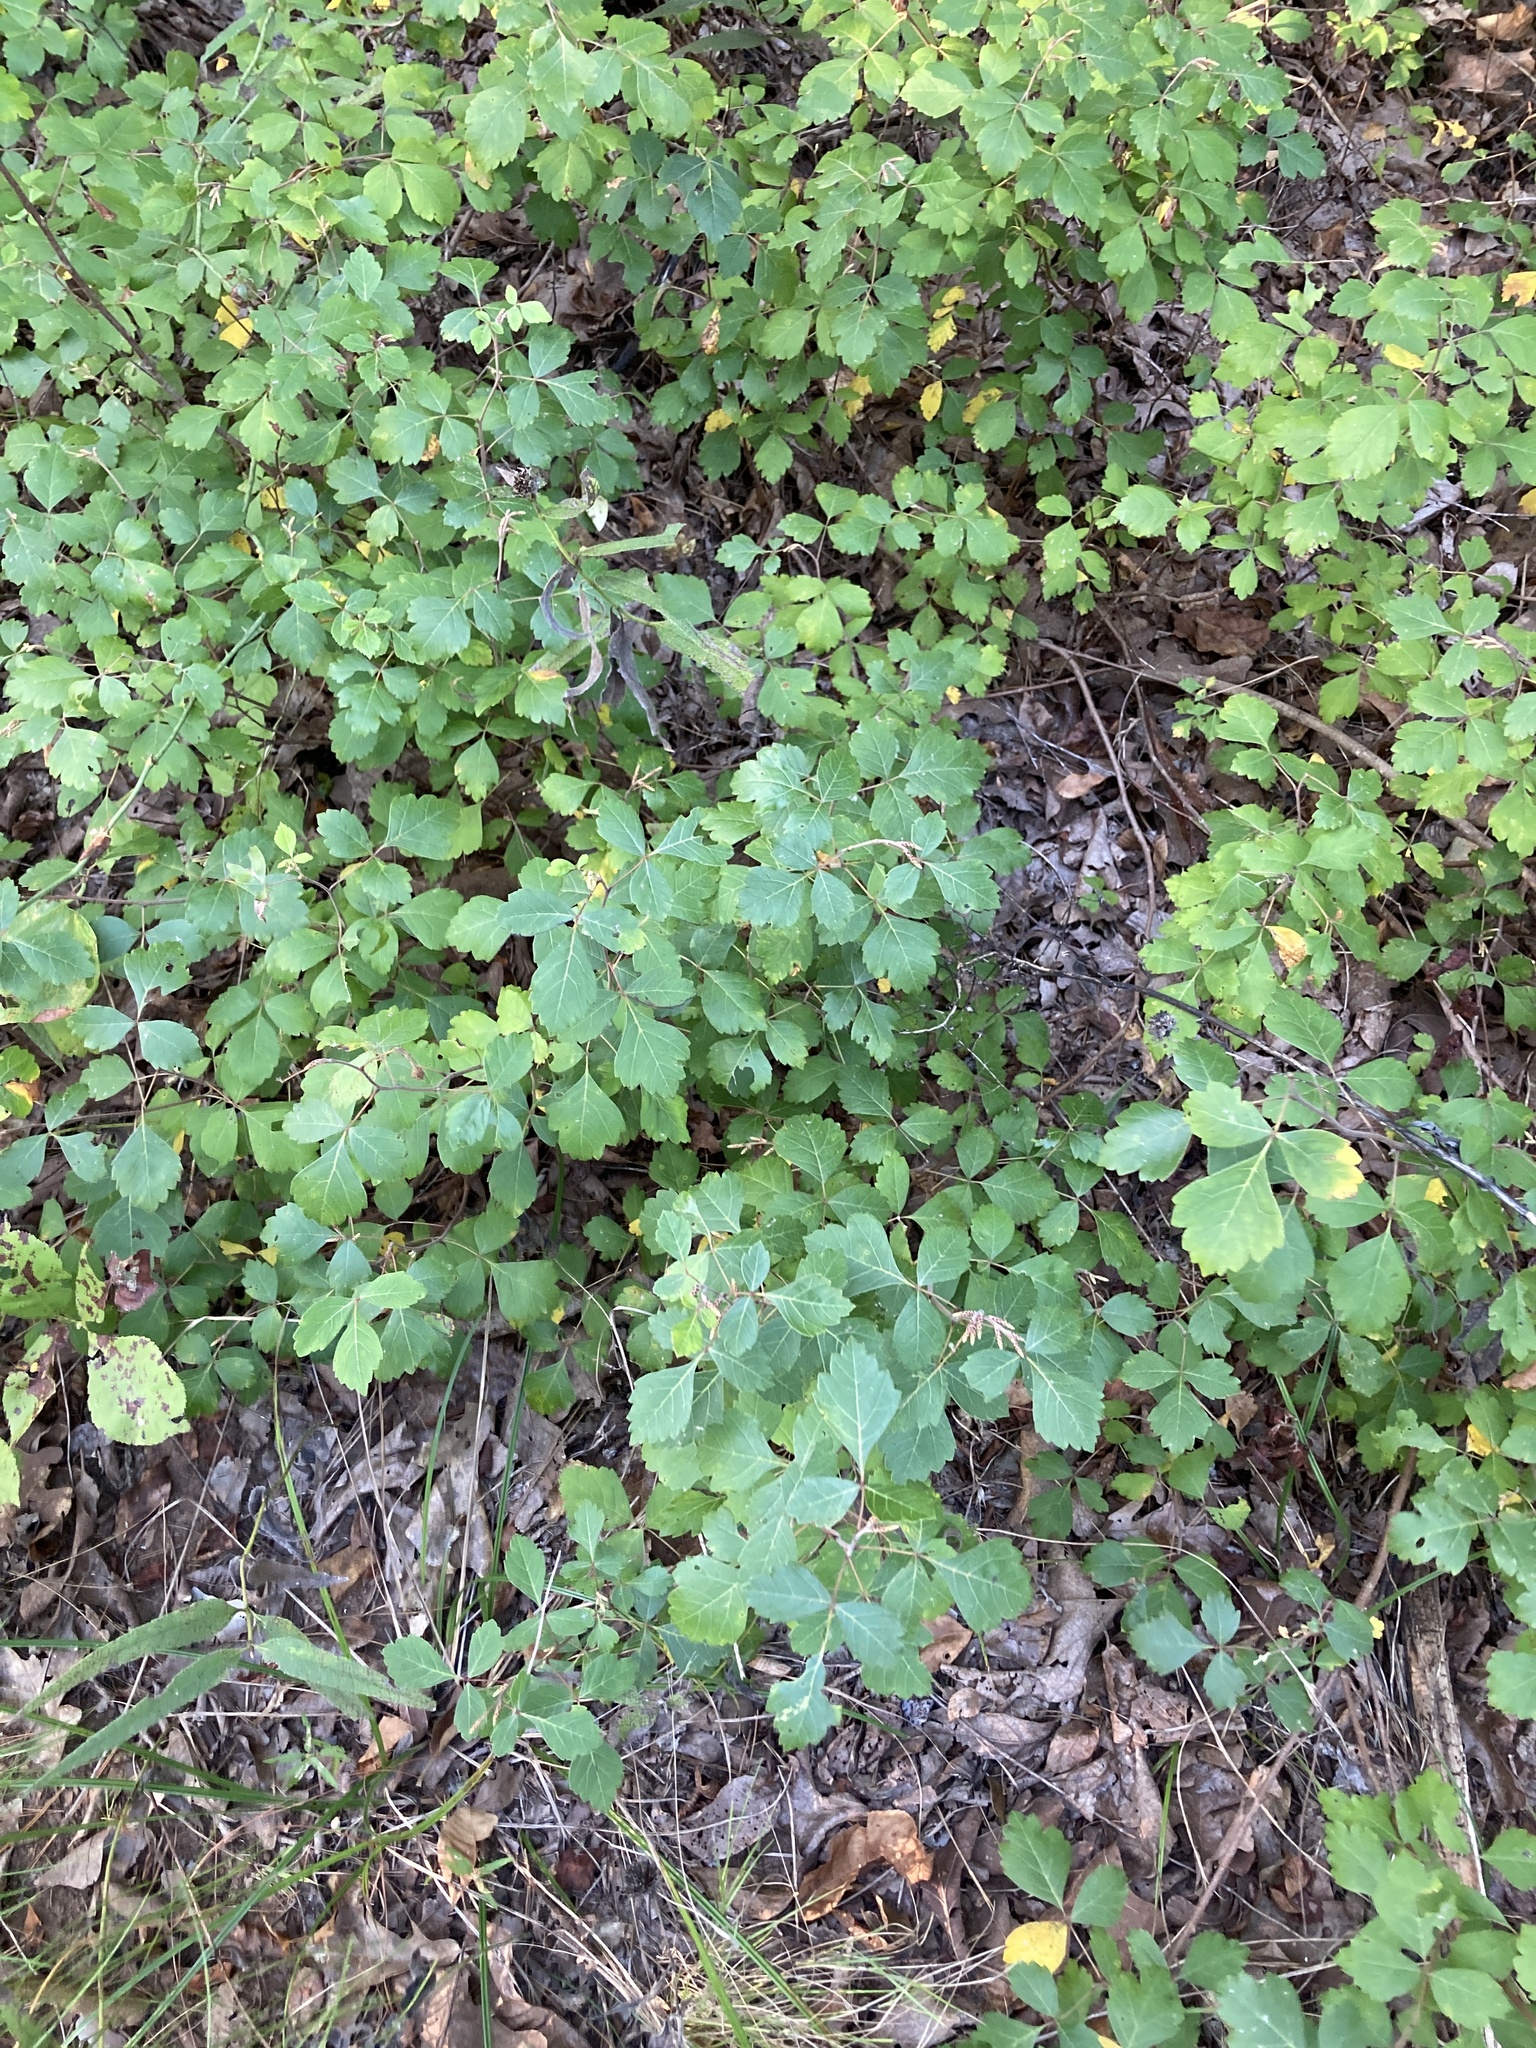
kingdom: Plantae
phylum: Tracheophyta
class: Magnoliopsida
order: Sapindales
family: Anacardiaceae
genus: Rhus
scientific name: Rhus aromatica
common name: Aromatic sumac
